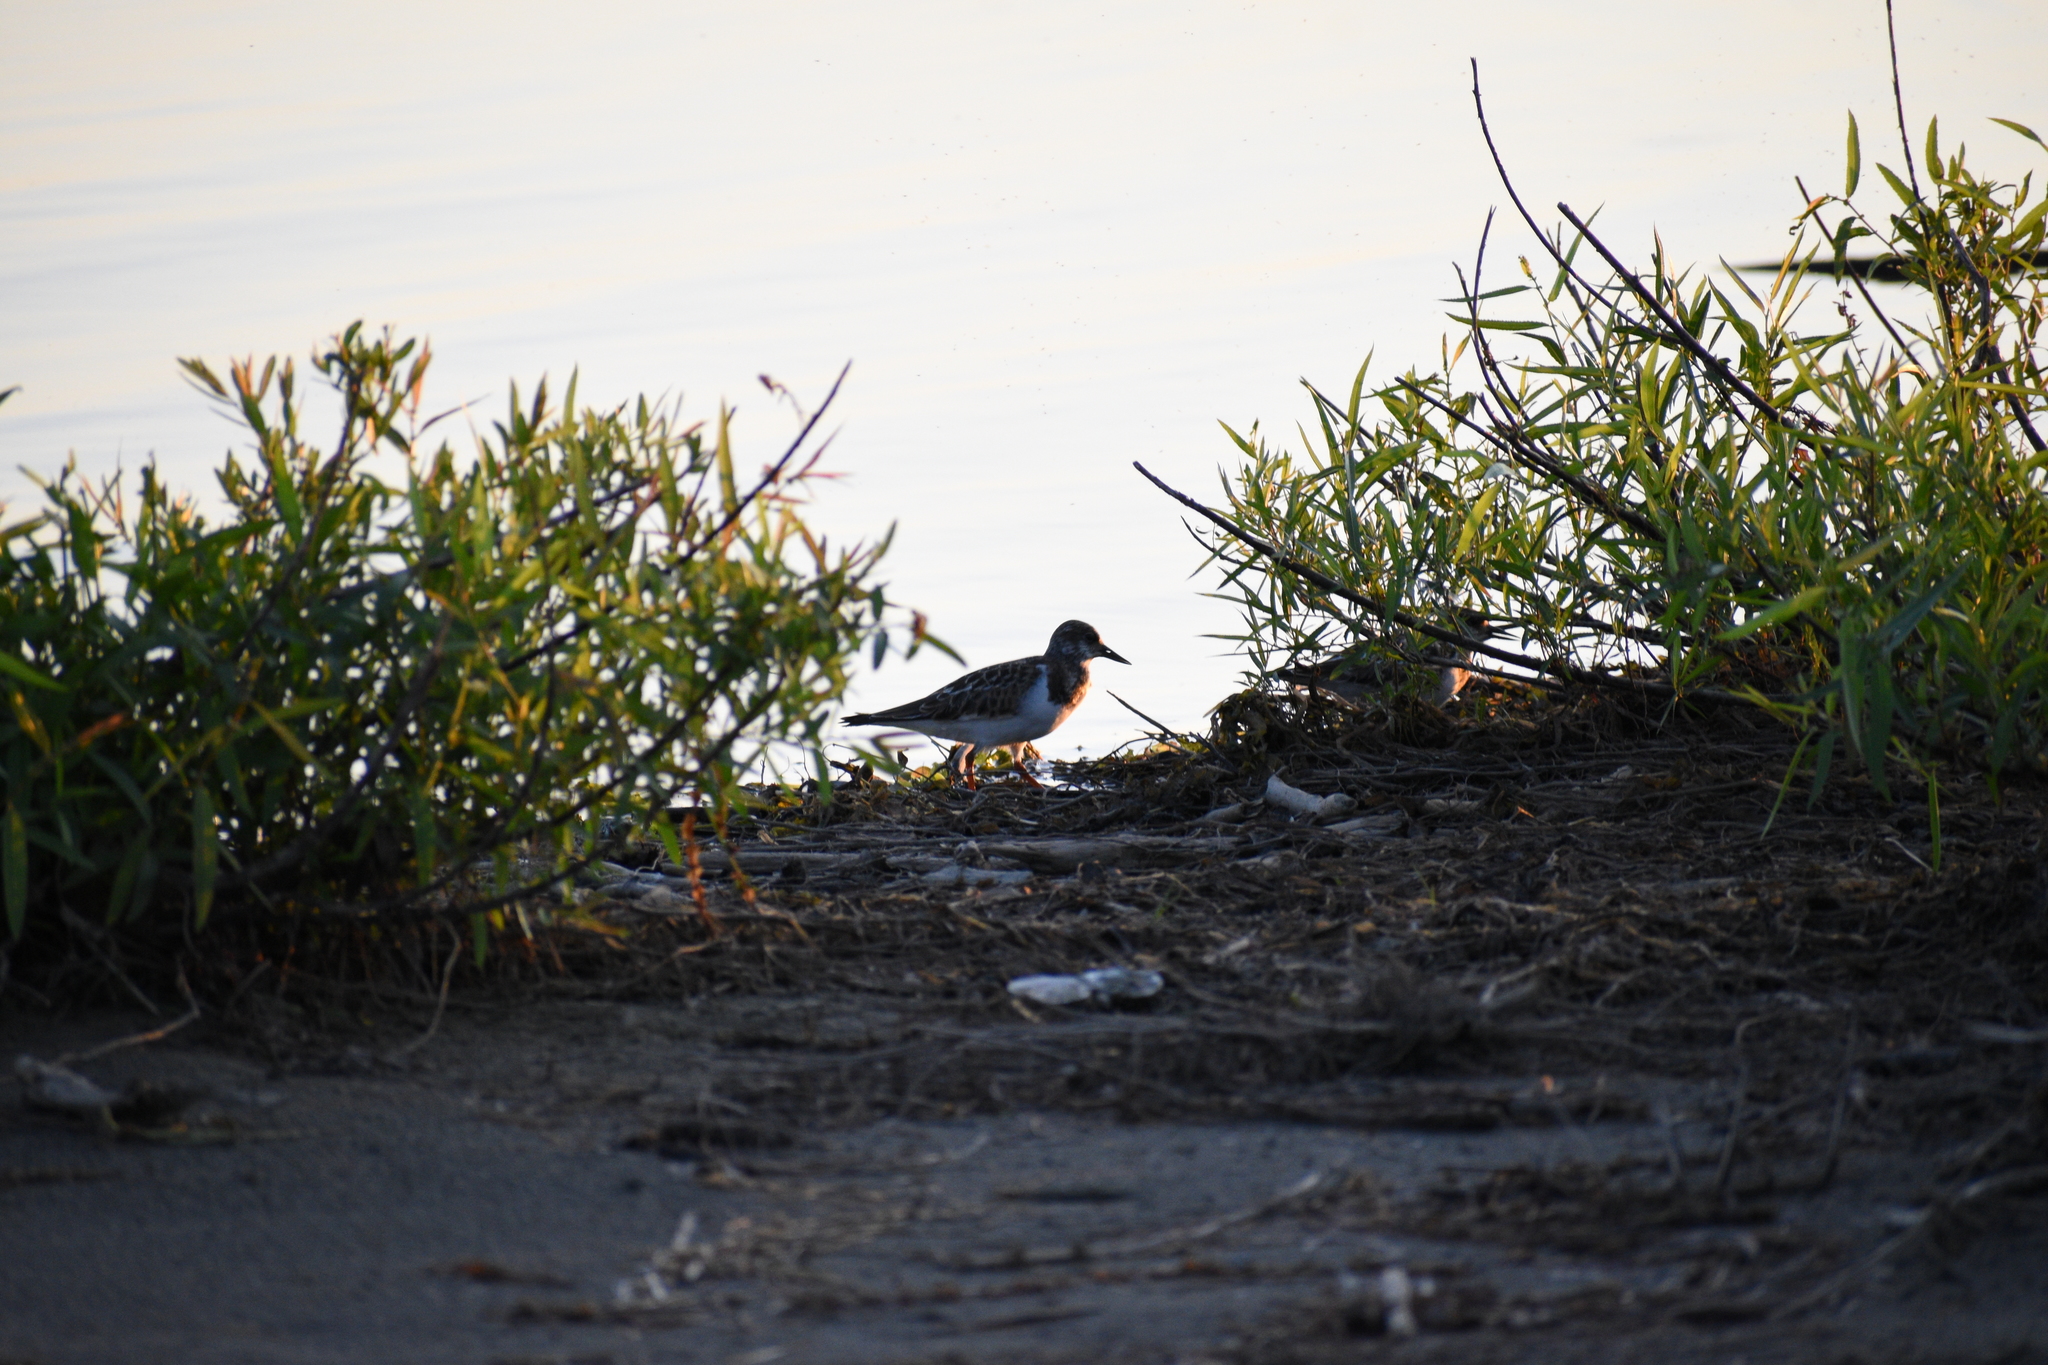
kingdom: Animalia
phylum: Chordata
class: Aves
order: Charadriiformes
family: Scolopacidae
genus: Arenaria
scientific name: Arenaria interpres
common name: Ruddy turnstone
